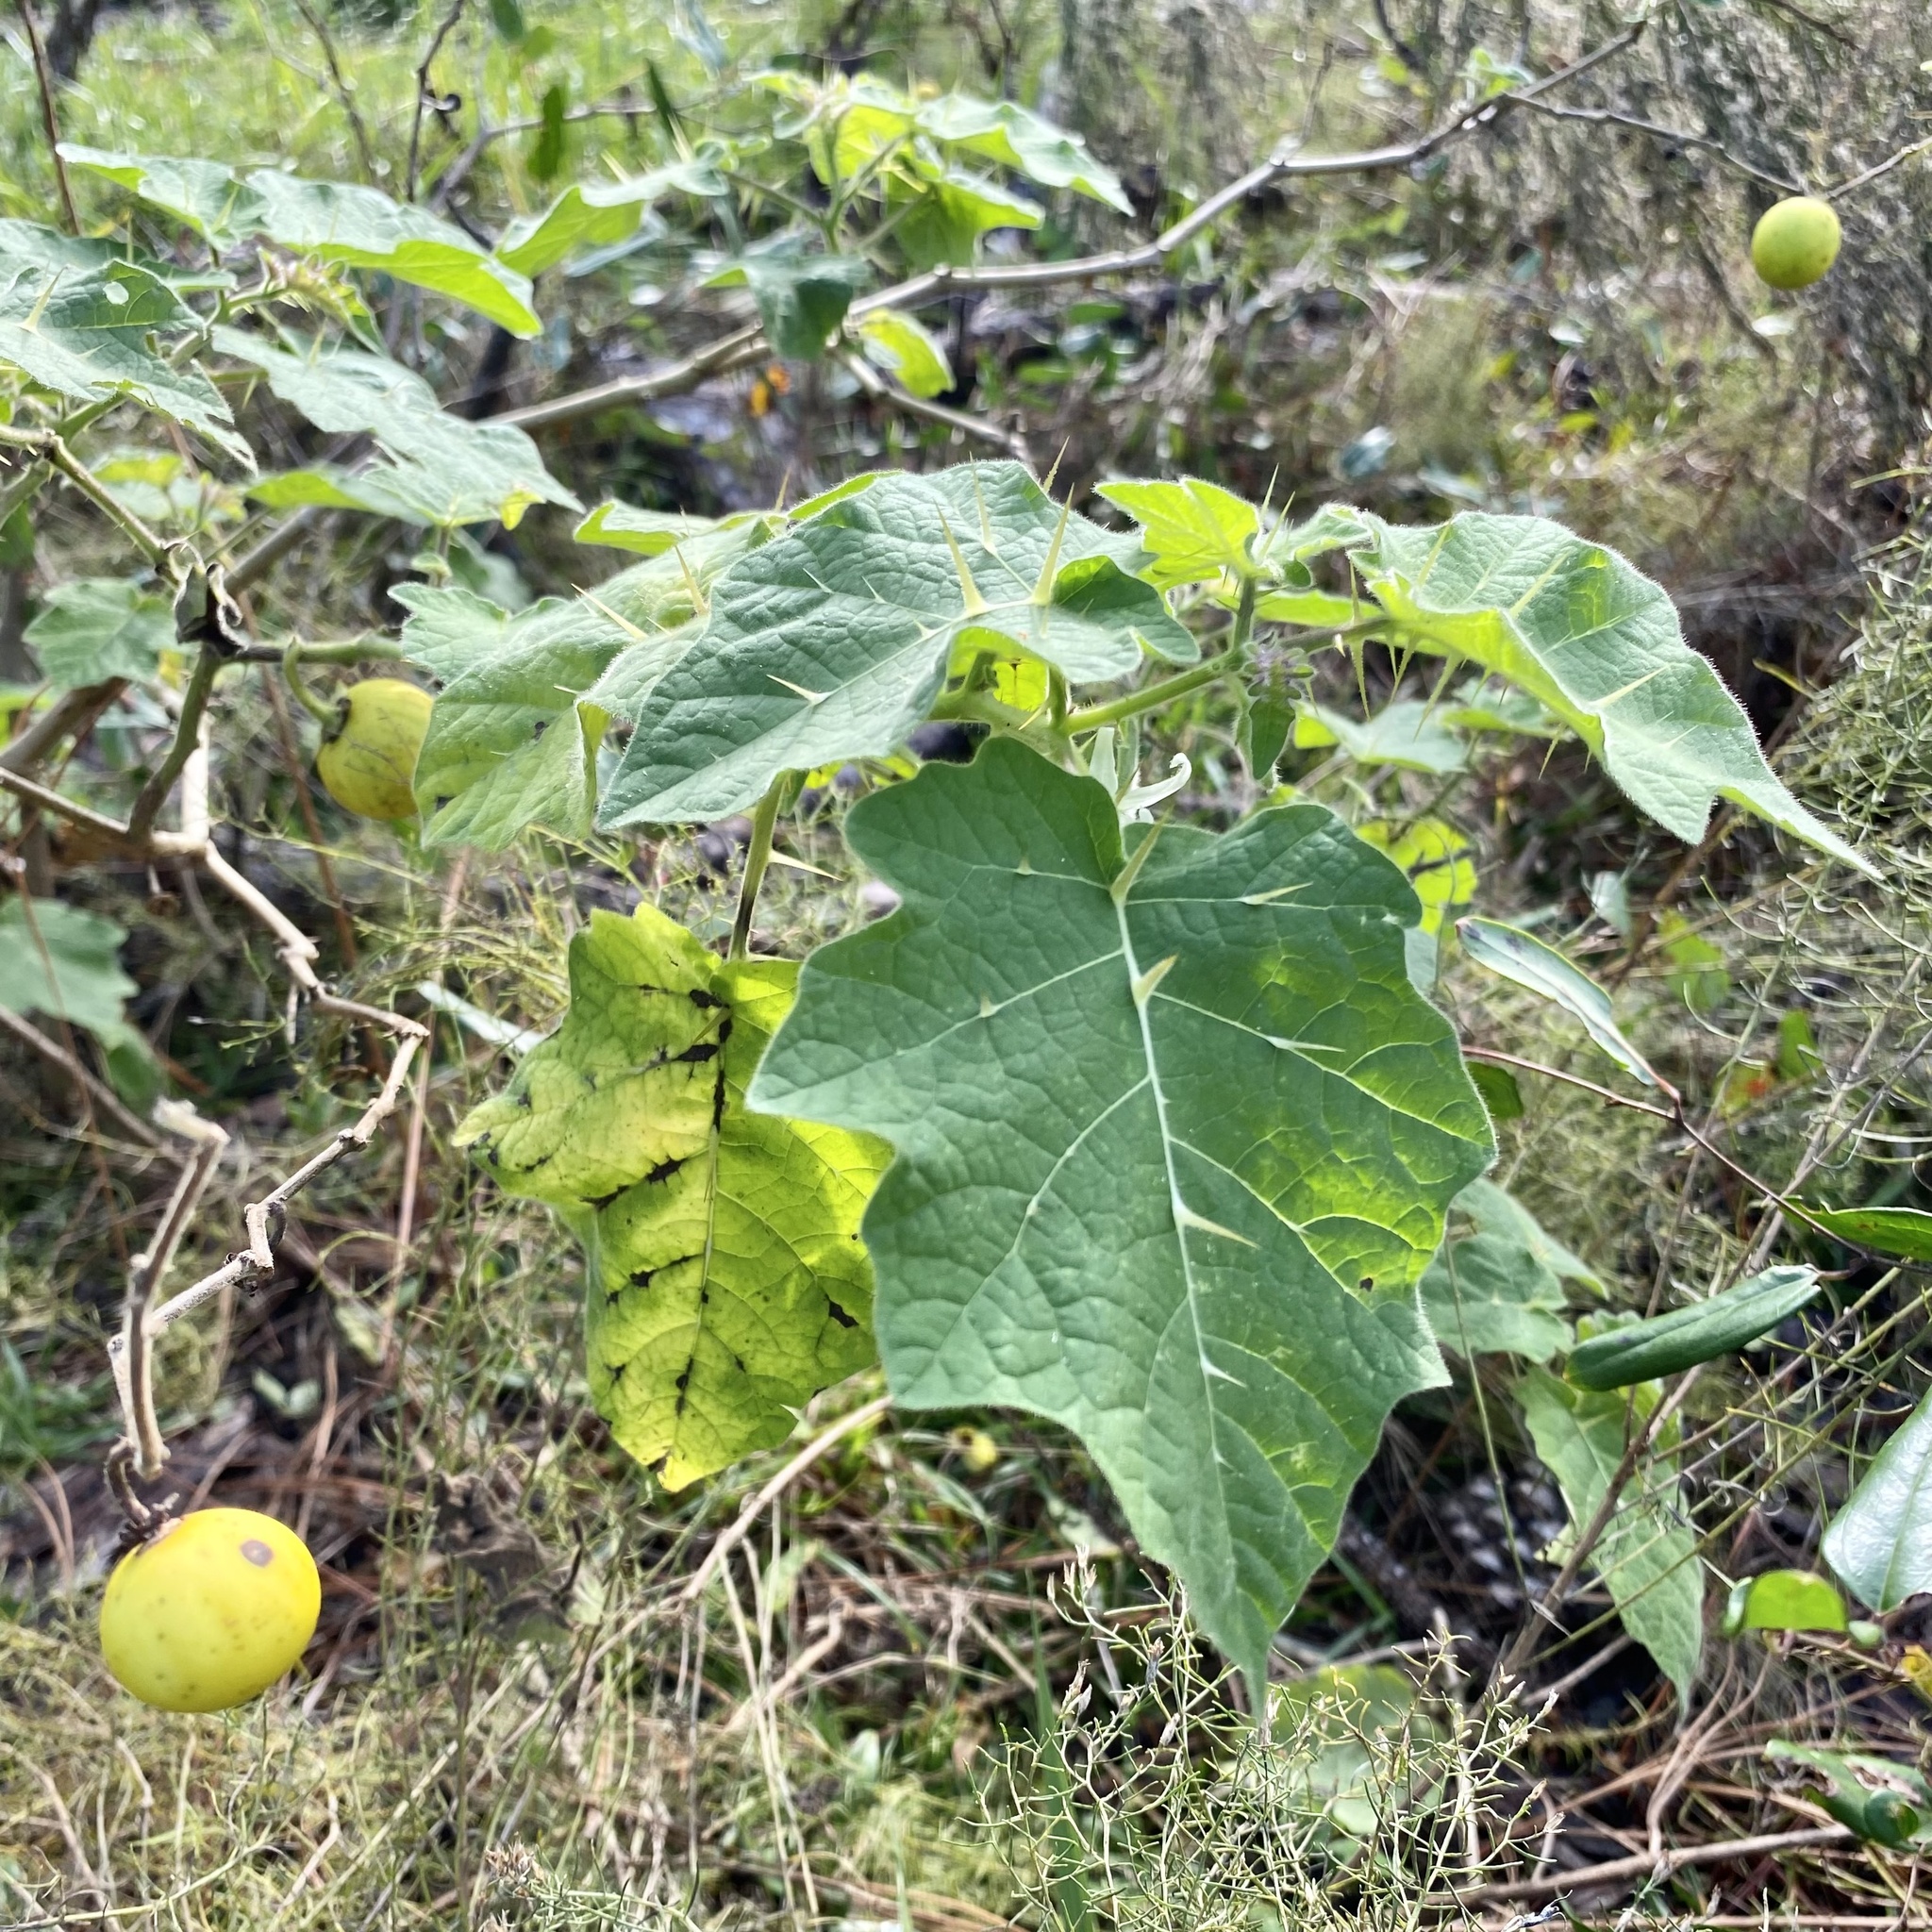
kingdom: Plantae
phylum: Tracheophyta
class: Magnoliopsida
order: Solanales
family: Solanaceae
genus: Solanum
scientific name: Solanum viarum
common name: Tropical soda apple
